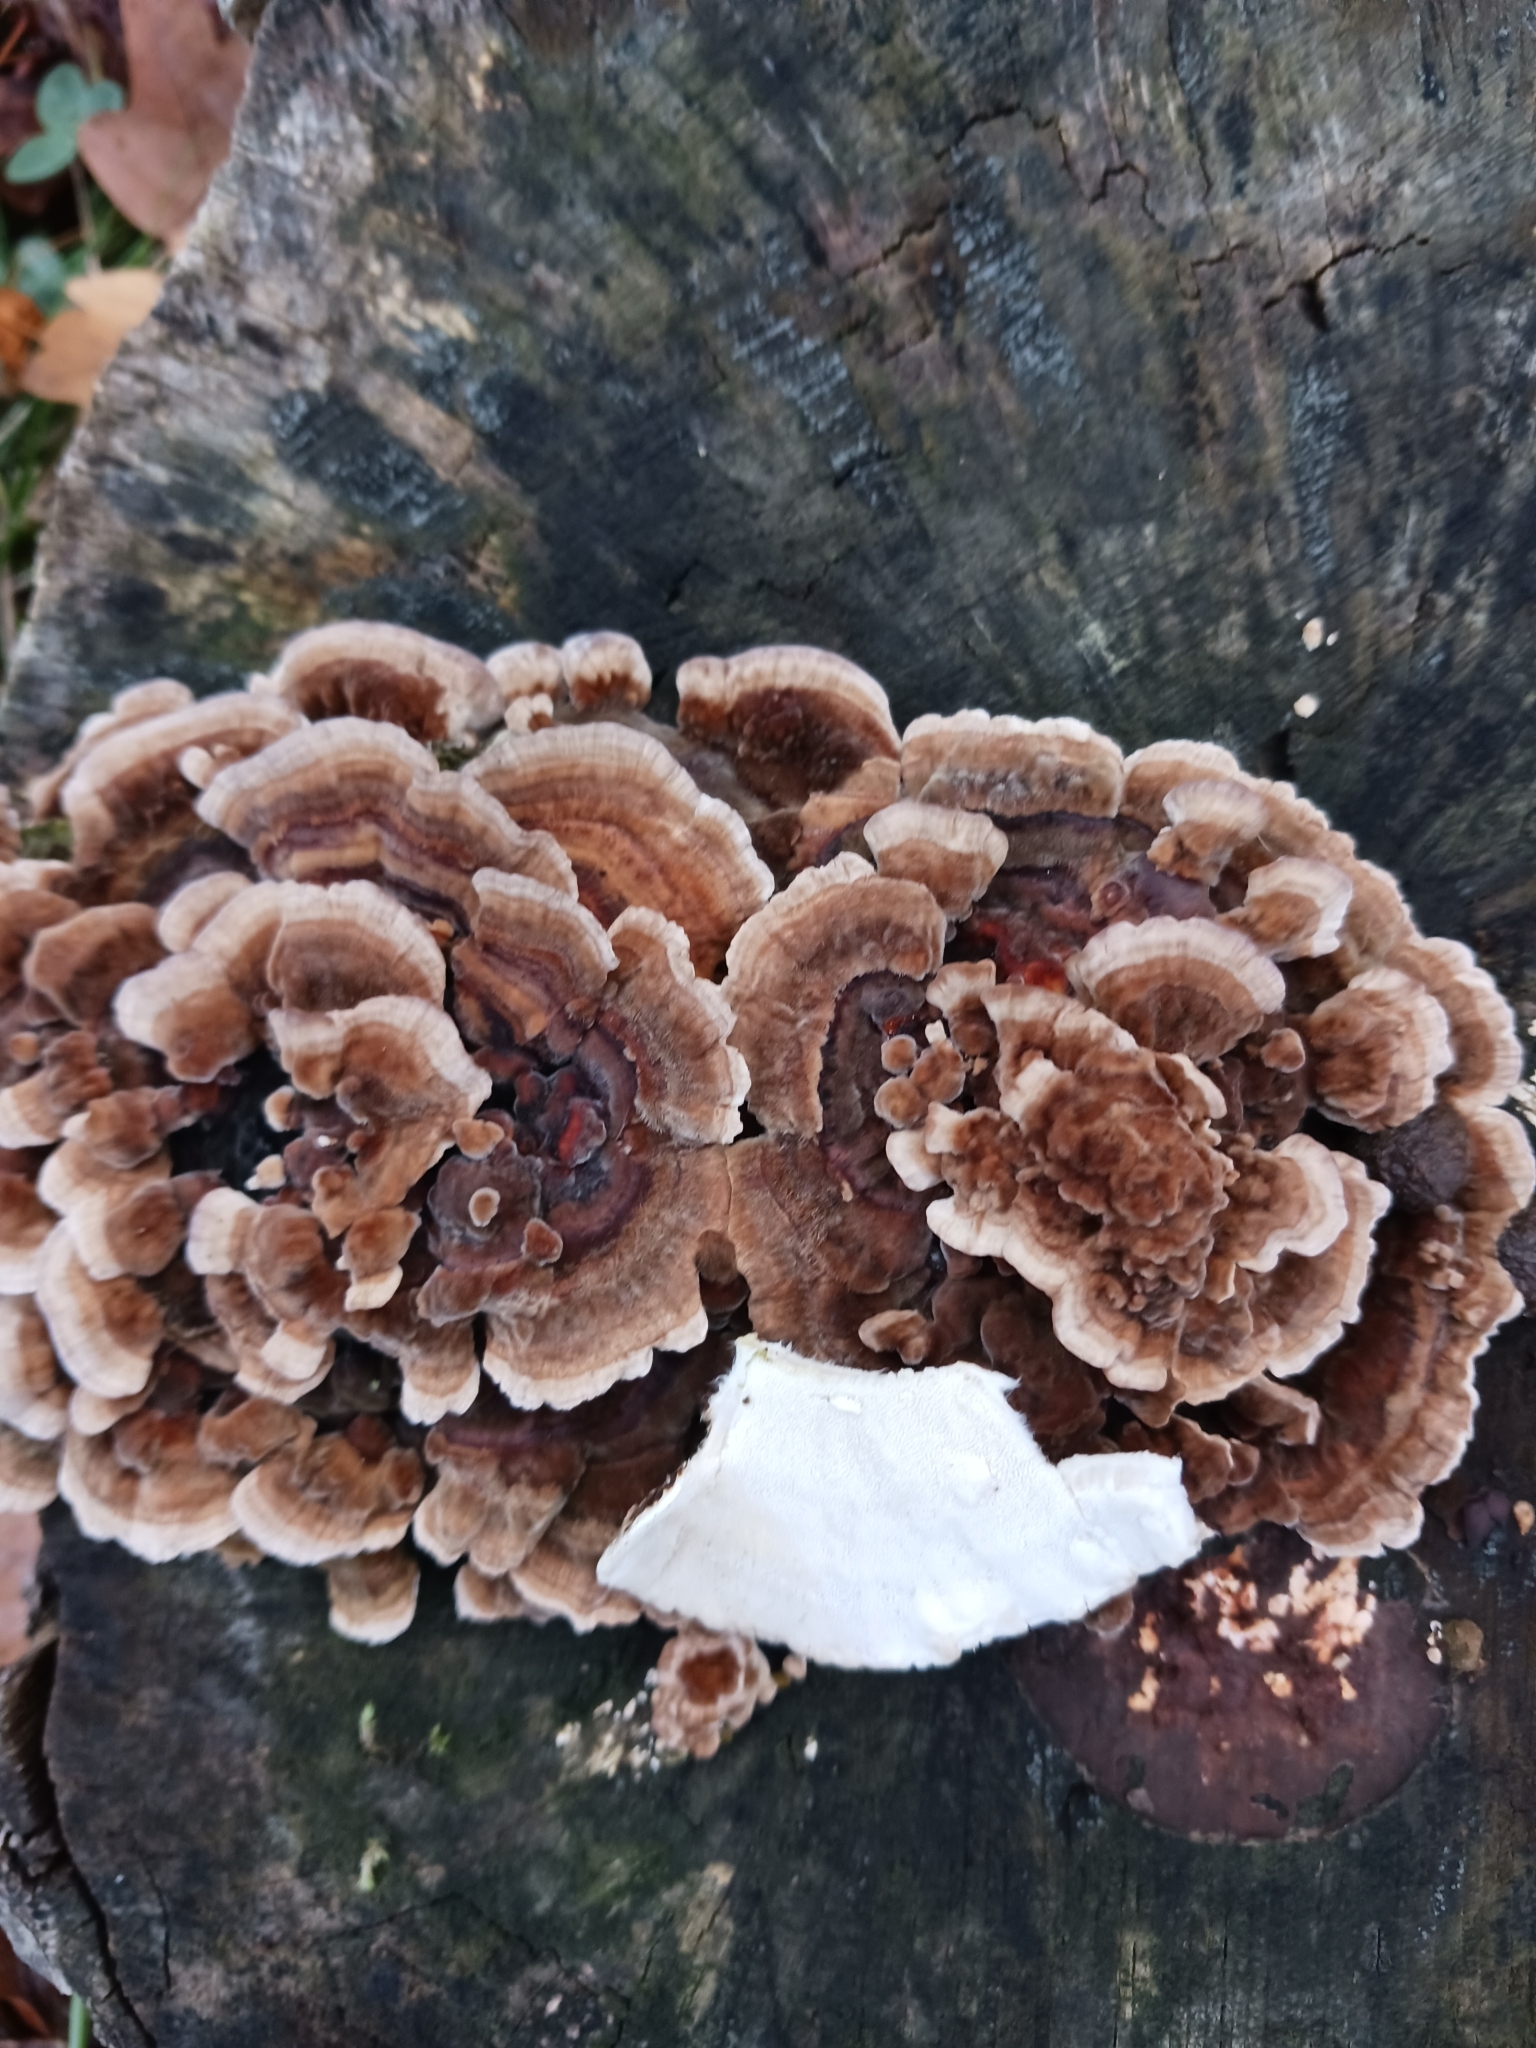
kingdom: Fungi
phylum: Basidiomycota
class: Agaricomycetes
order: Polyporales
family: Polyporaceae
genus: Trametes
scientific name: Trametes versicolor
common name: Turkeytail
